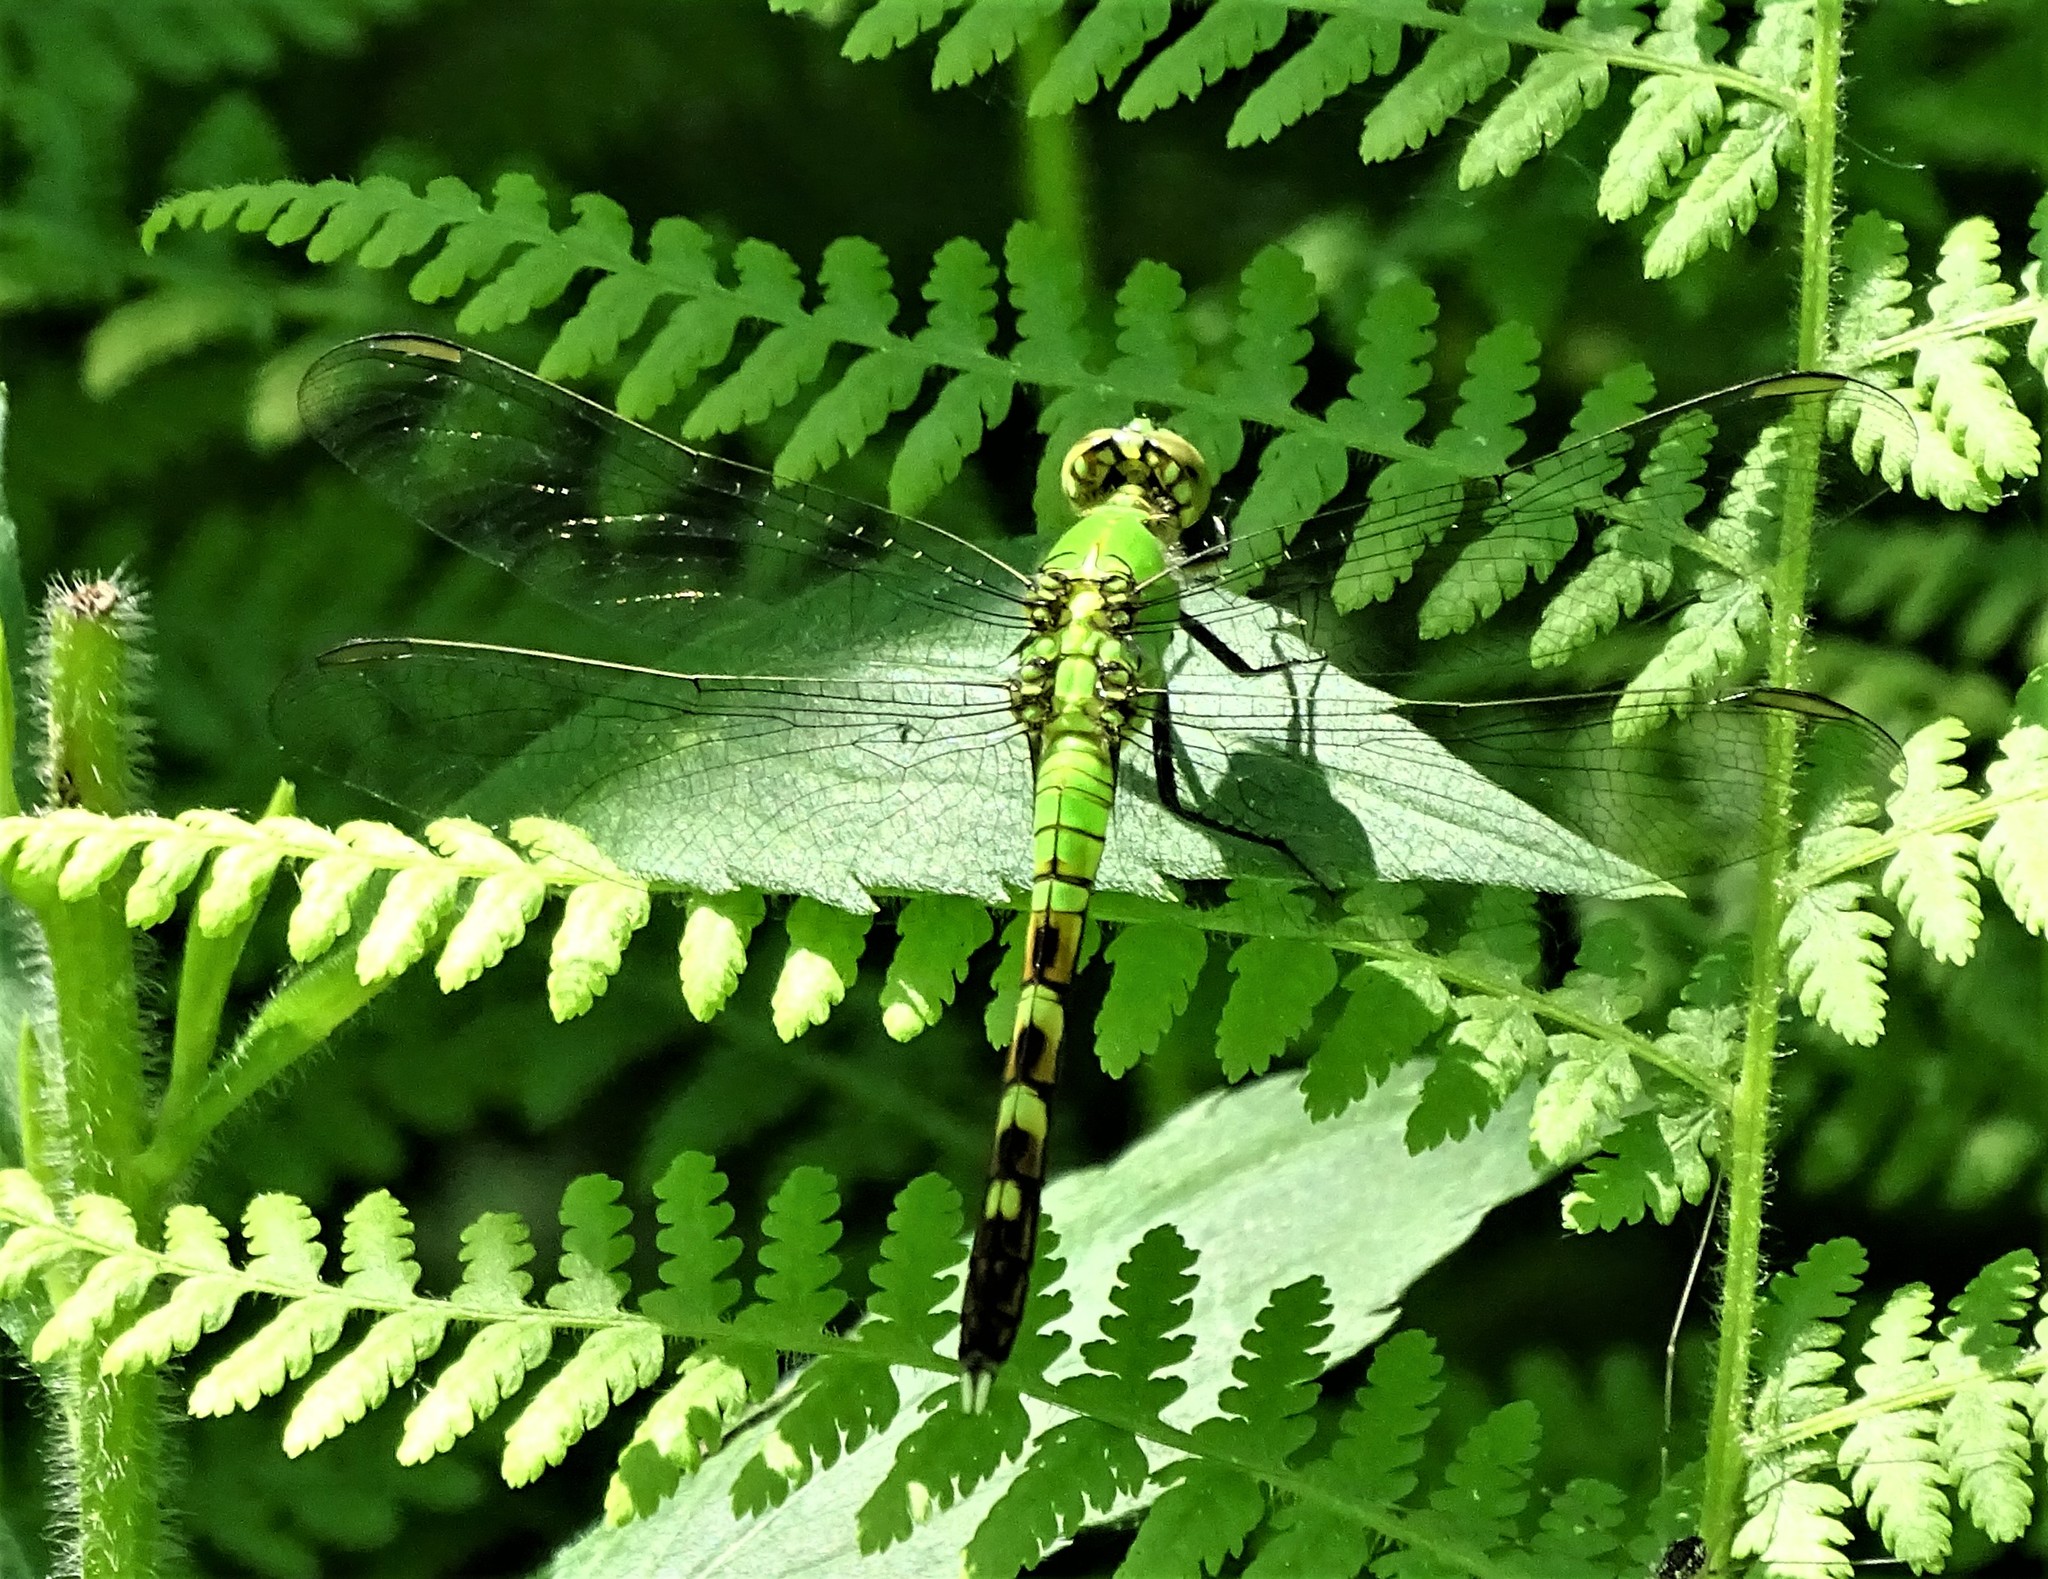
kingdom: Animalia
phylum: Arthropoda
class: Insecta
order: Odonata
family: Libellulidae
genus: Erythemis
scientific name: Erythemis simplicicollis
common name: Eastern pondhawk
